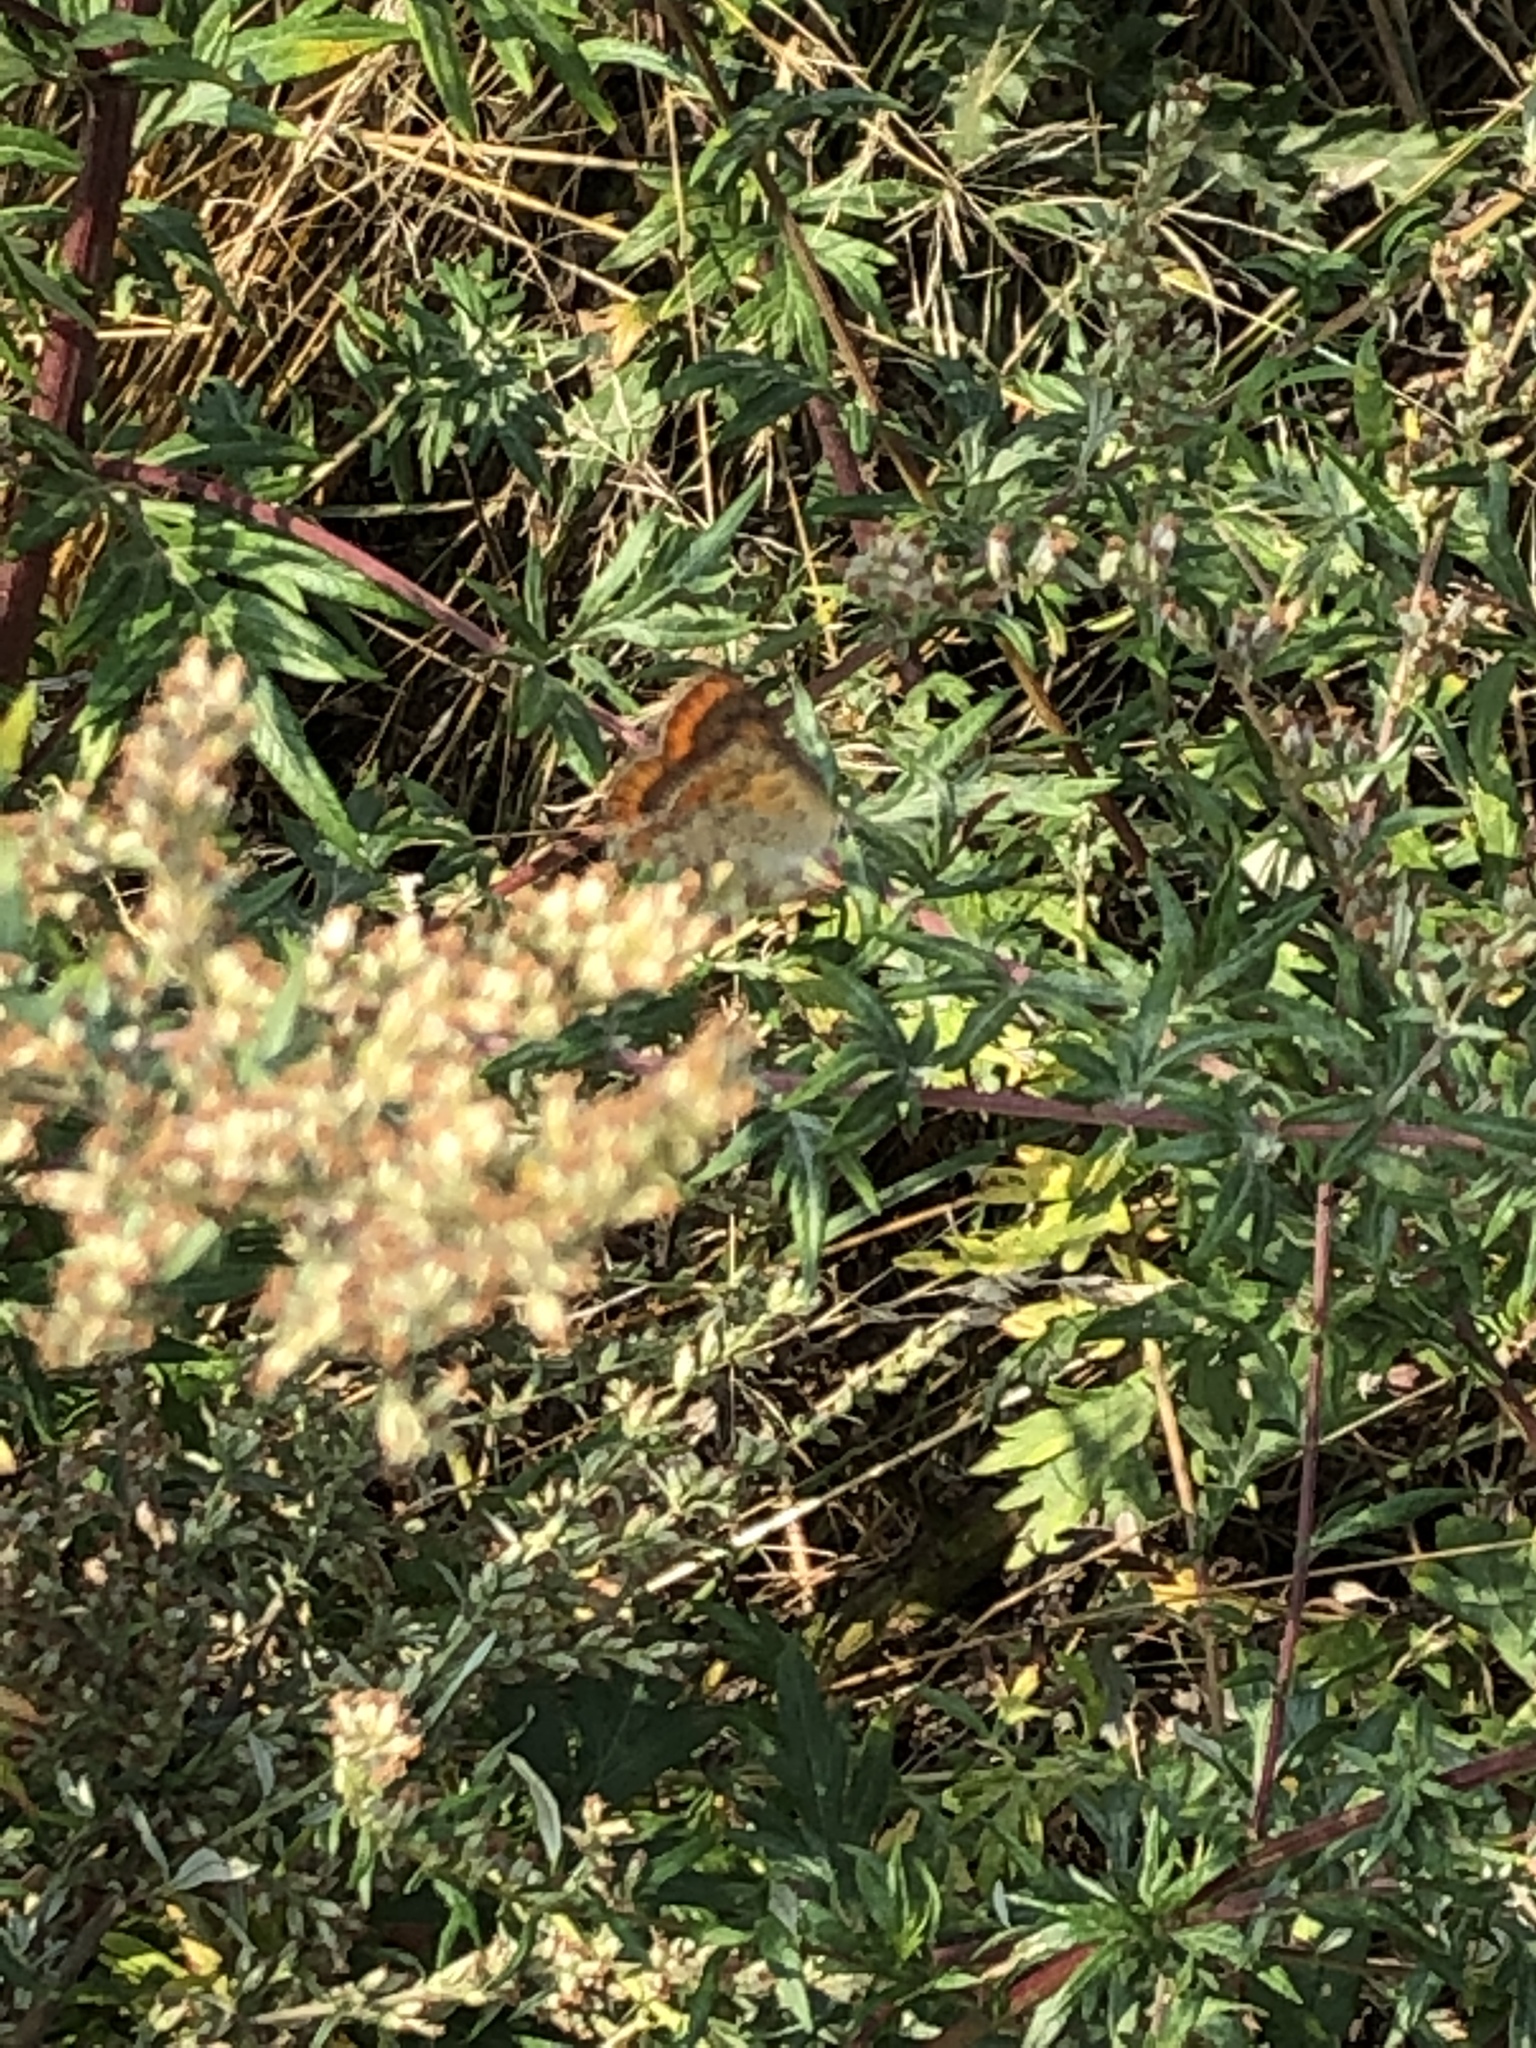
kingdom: Animalia
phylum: Arthropoda
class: Insecta
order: Lepidoptera
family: Lycaenidae
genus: Loweia
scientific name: Loweia tityrus
